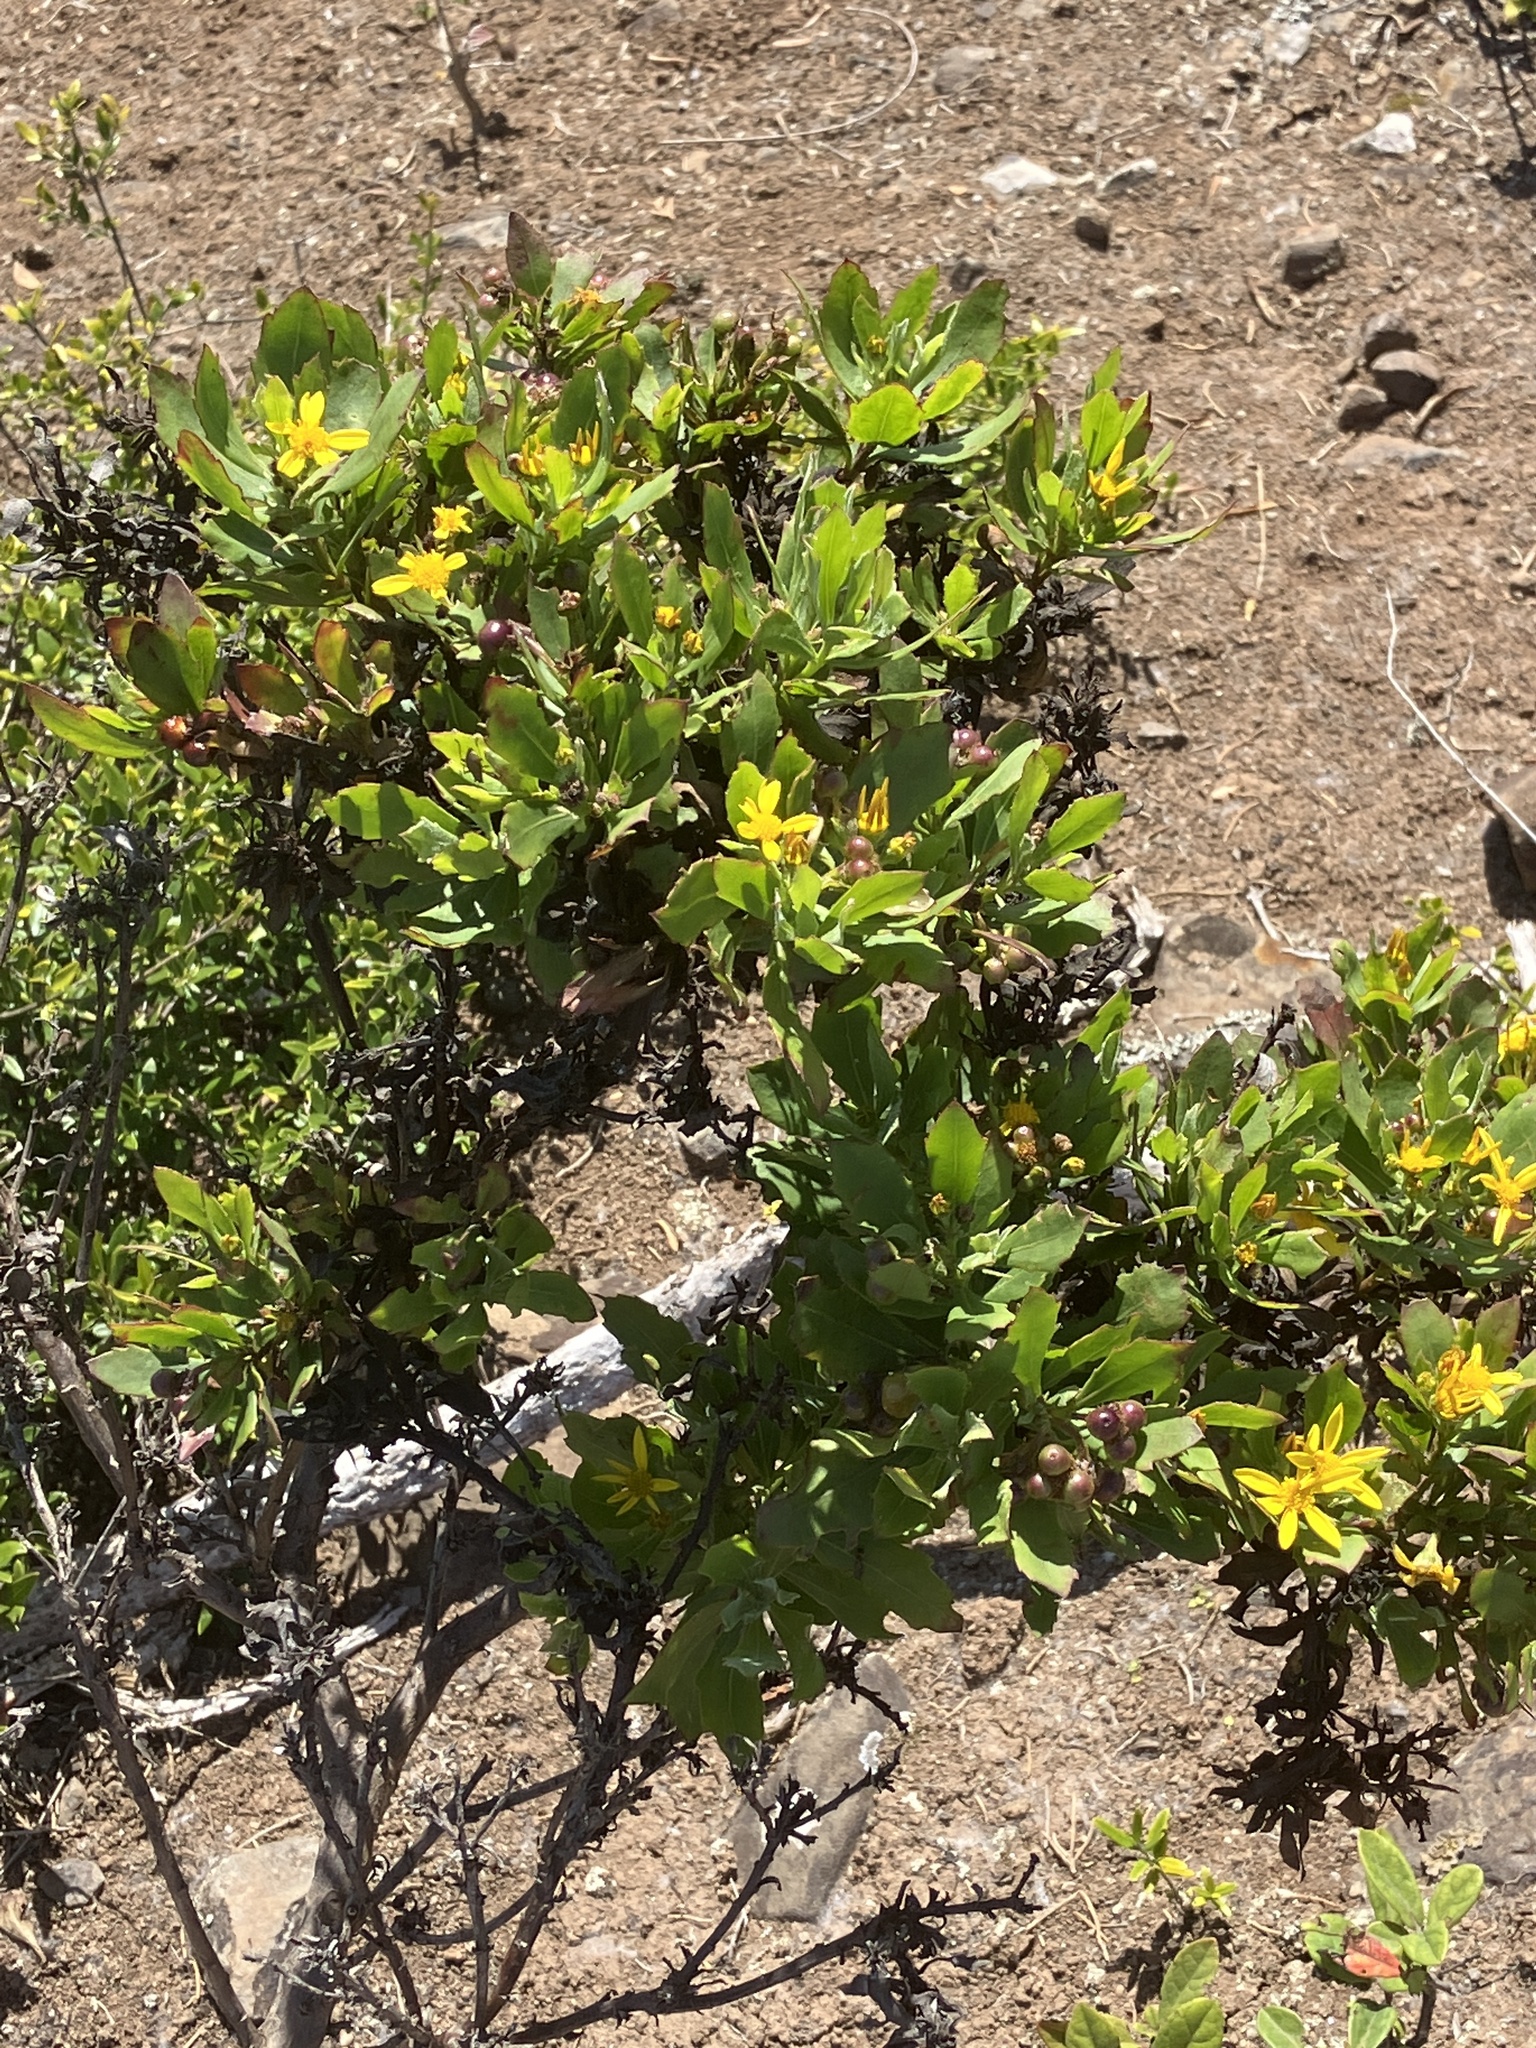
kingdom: Plantae
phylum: Tracheophyta
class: Magnoliopsida
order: Asterales
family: Asteraceae
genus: Osteospermum
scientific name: Osteospermum moniliferum
